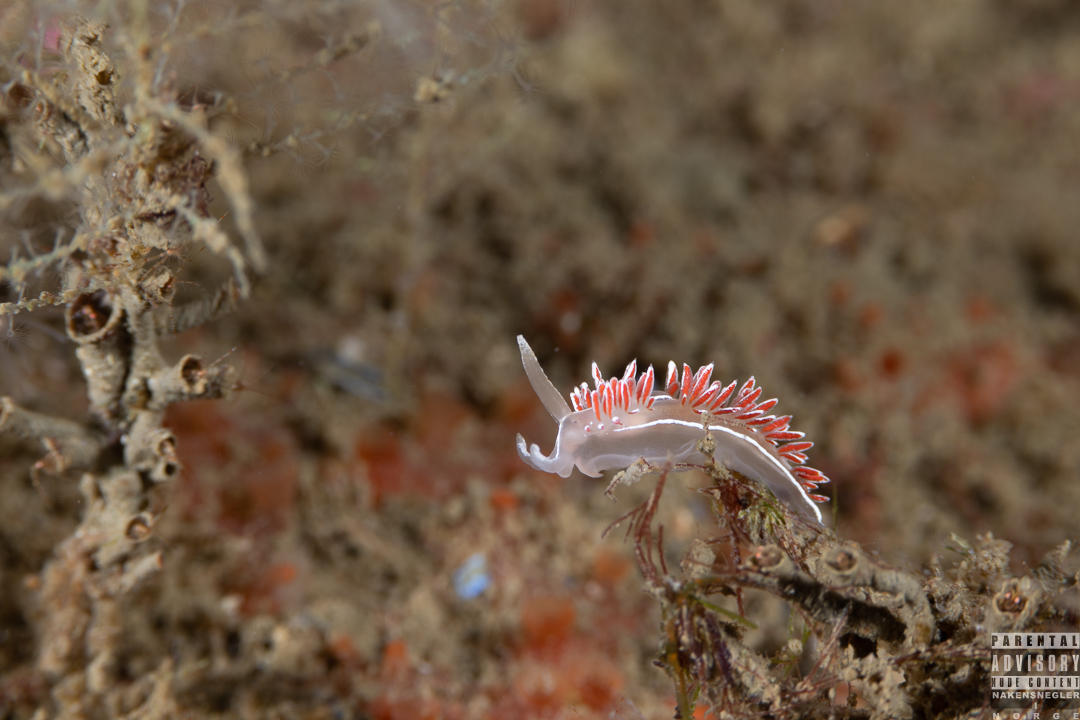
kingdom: Animalia
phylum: Mollusca
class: Gastropoda
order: Nudibranchia
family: Coryphellidae
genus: Coryphella
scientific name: Coryphella lineata
